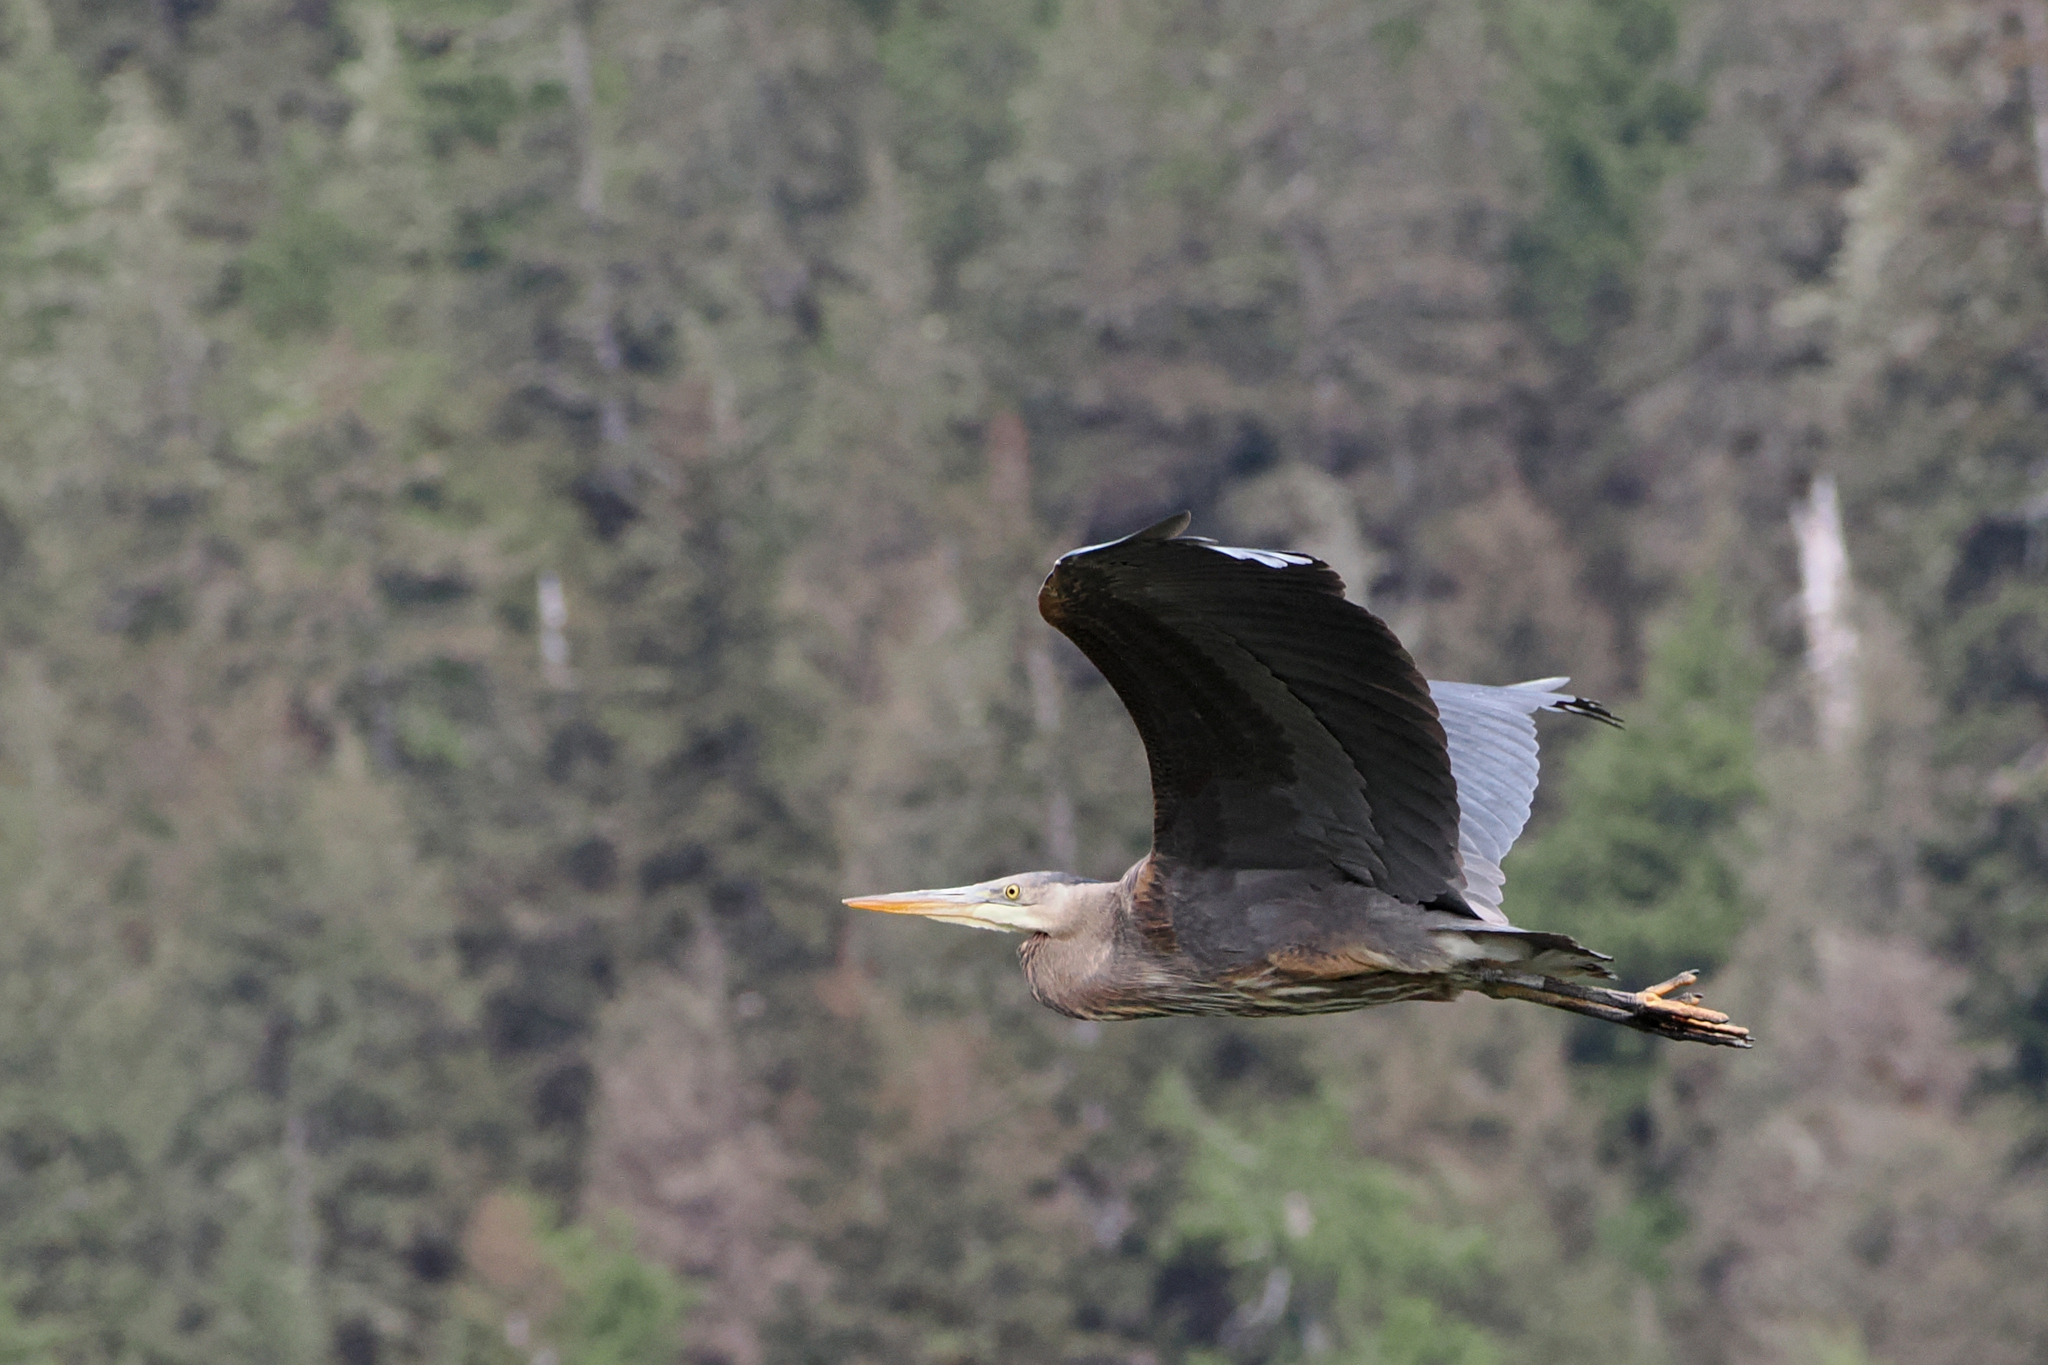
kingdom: Animalia
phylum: Chordata
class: Aves
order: Pelecaniformes
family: Ardeidae
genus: Ardea
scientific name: Ardea herodias
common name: Great blue heron
